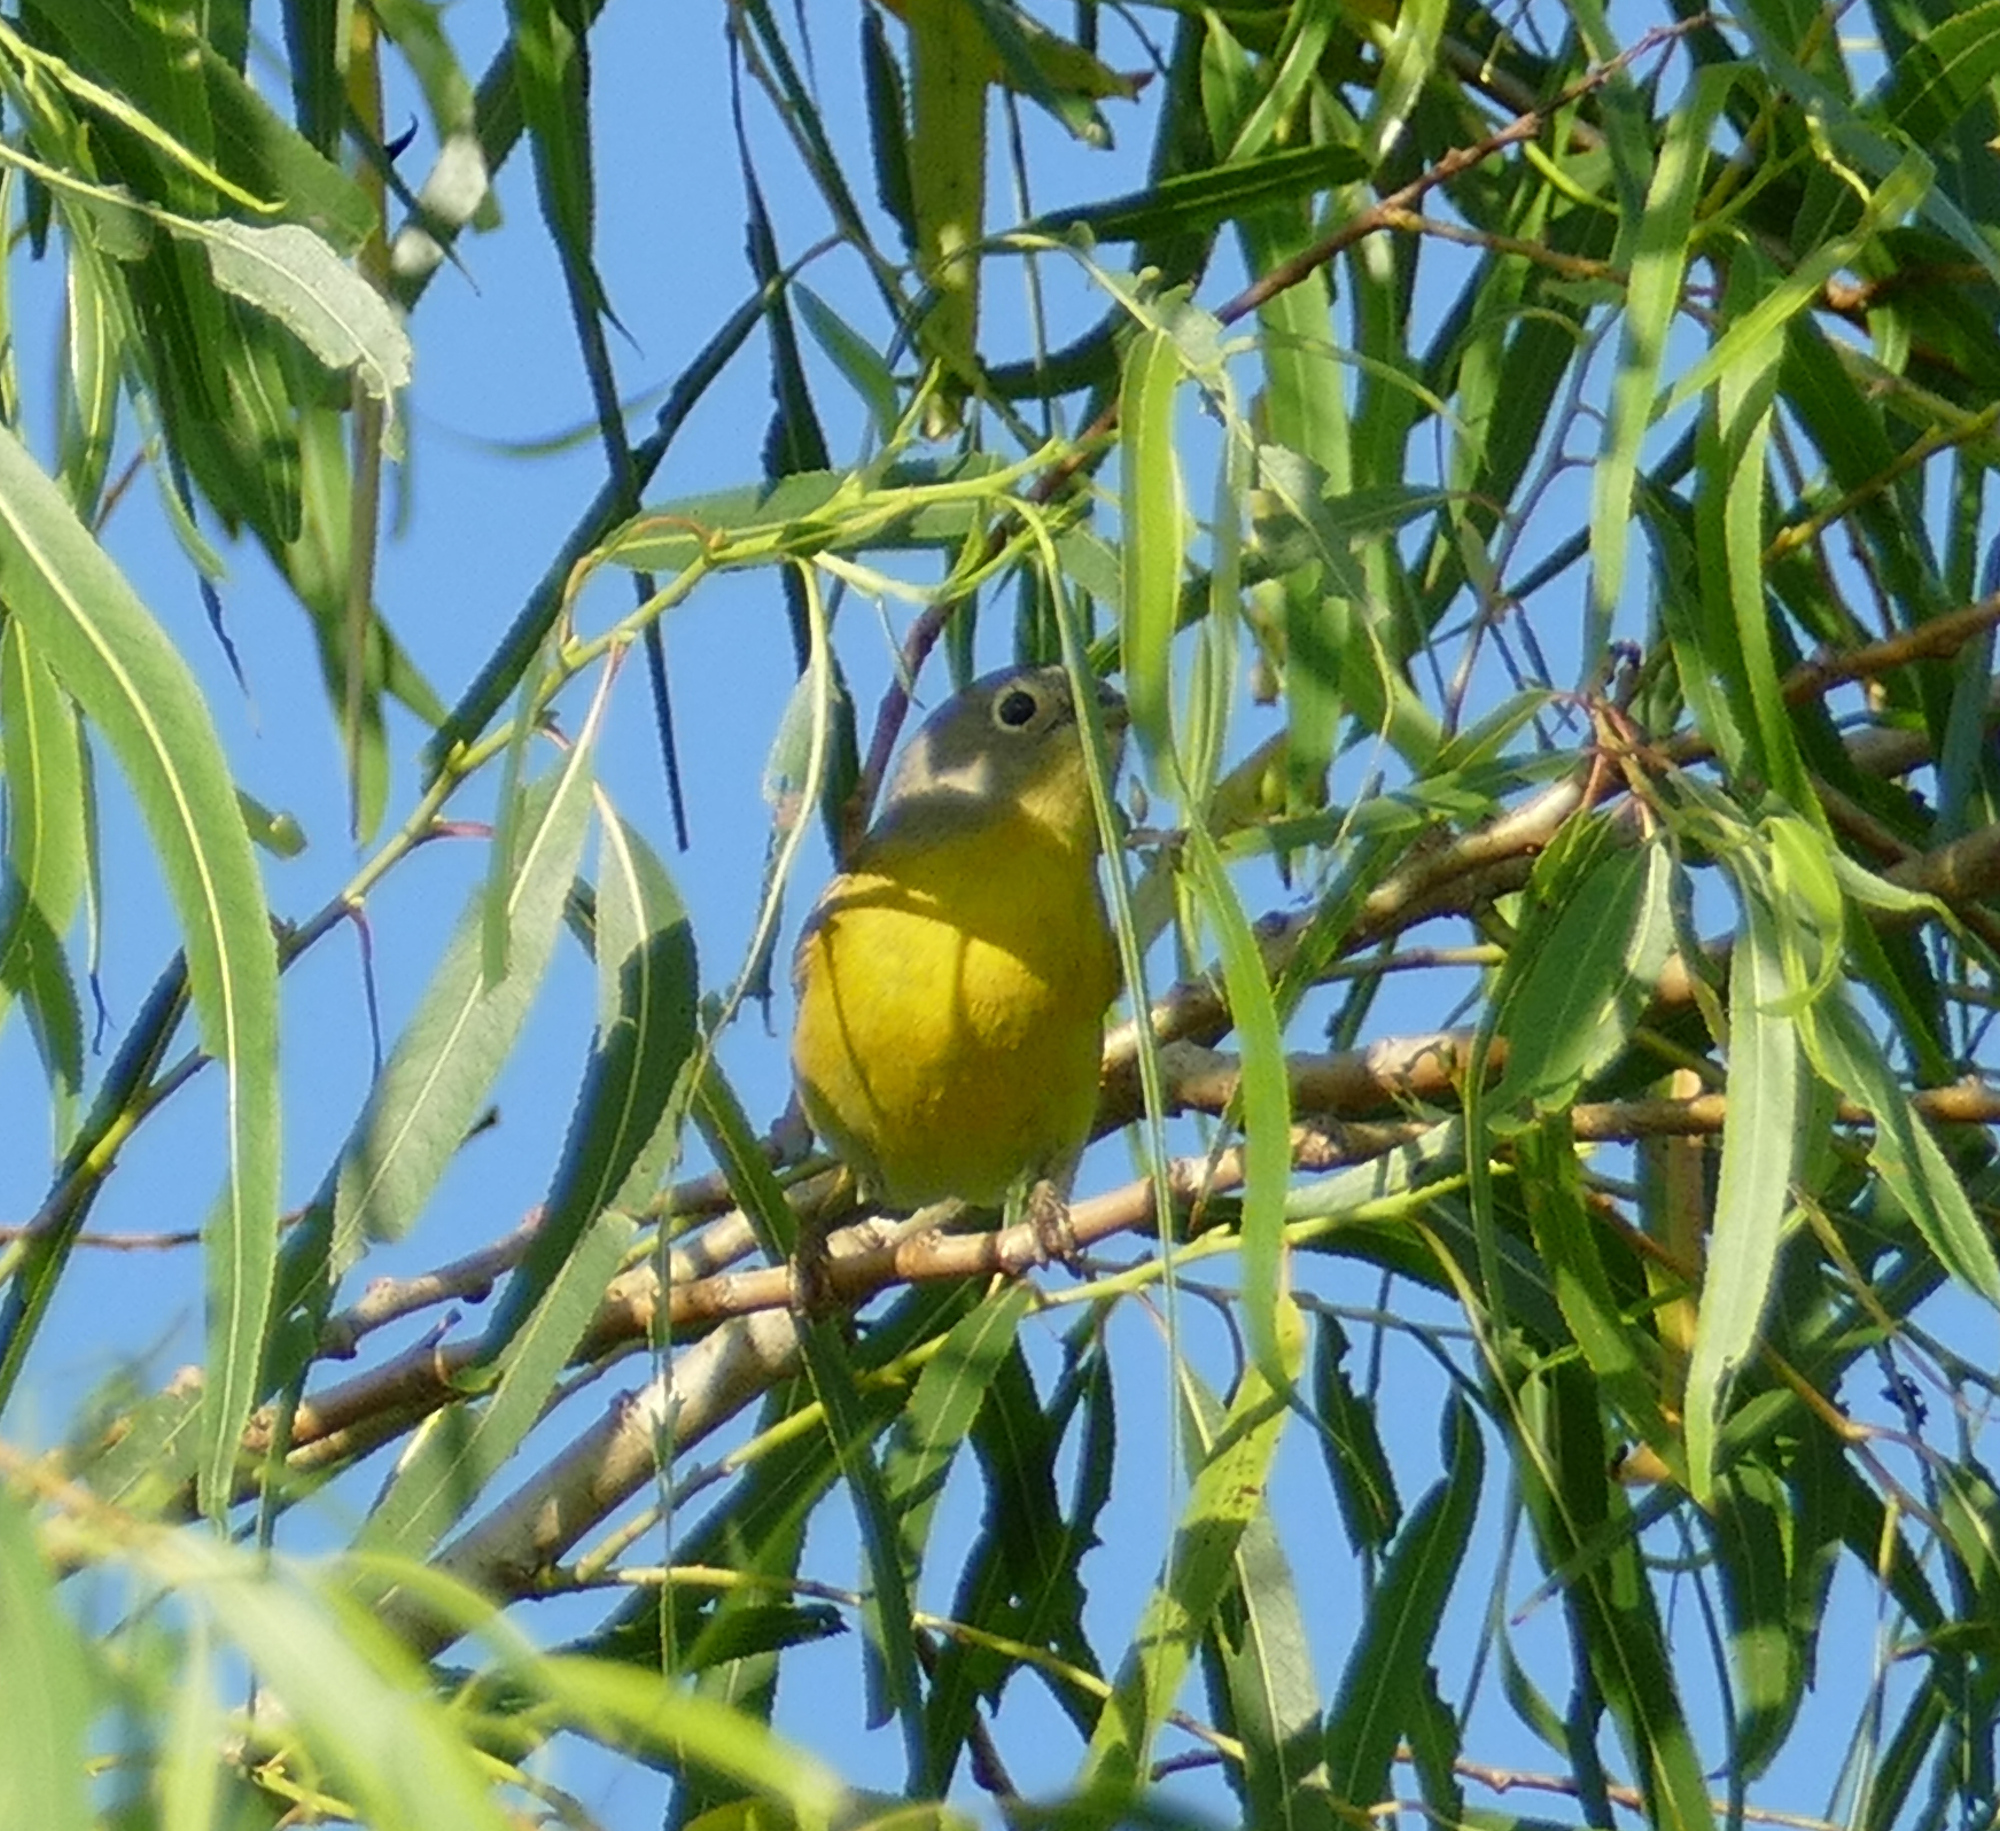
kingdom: Animalia
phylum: Chordata
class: Aves
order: Passeriformes
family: Parulidae
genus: Leiothlypis
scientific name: Leiothlypis ruficapilla
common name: Nashville warbler
